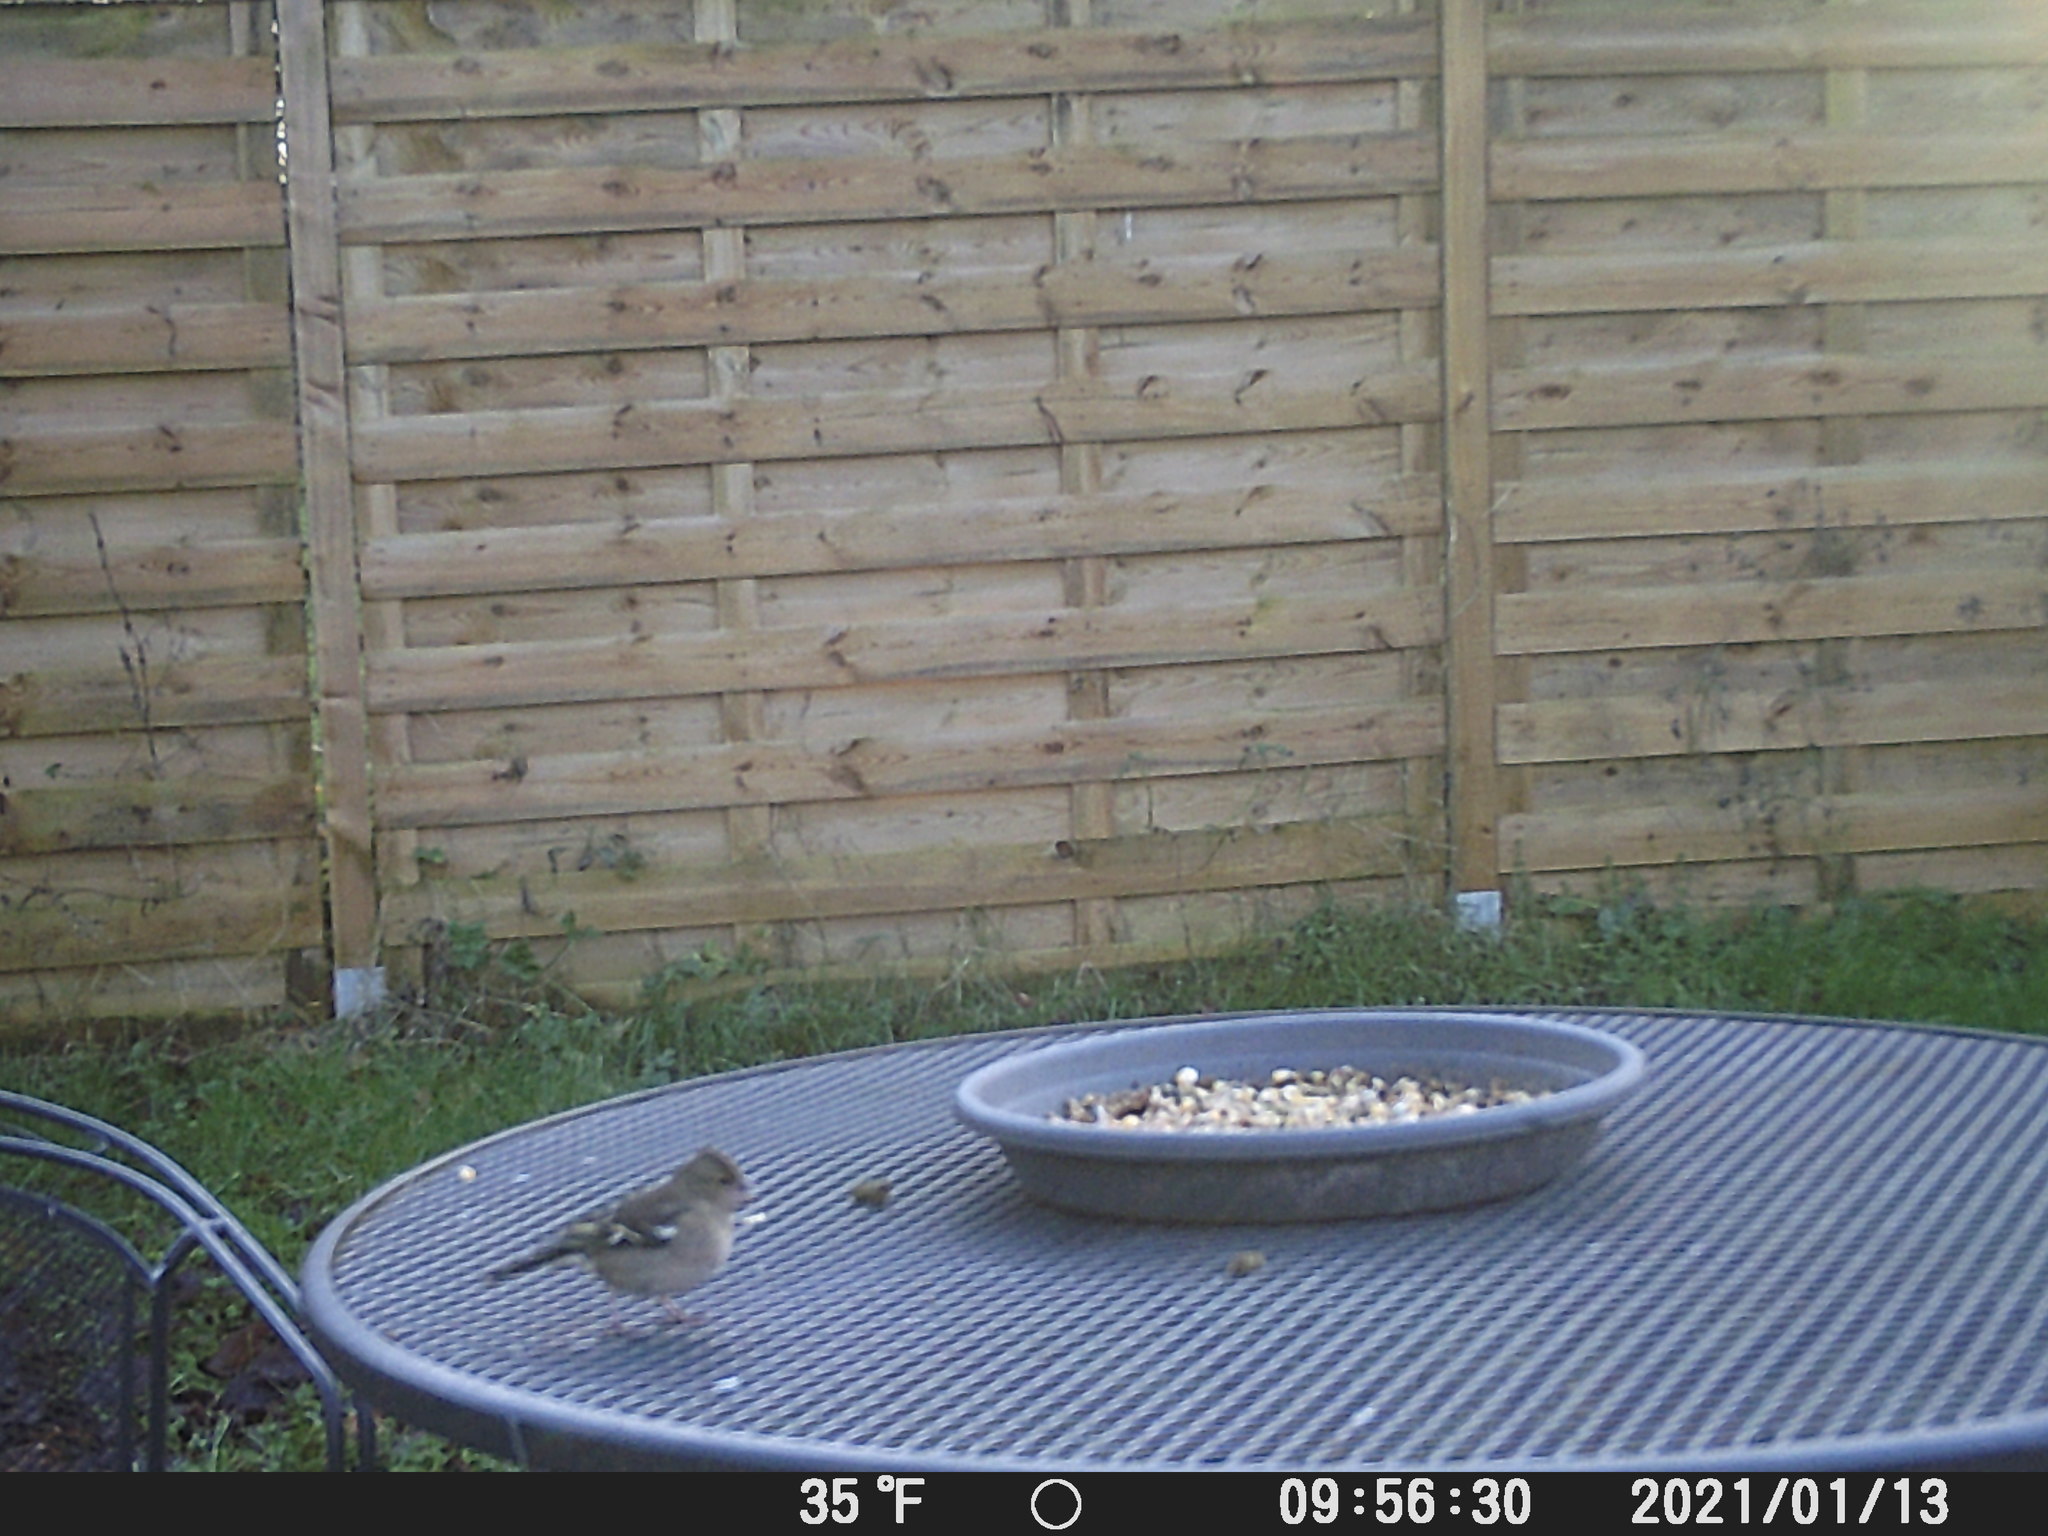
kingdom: Animalia
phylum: Chordata
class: Aves
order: Passeriformes
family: Fringillidae
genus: Fringilla
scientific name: Fringilla coelebs
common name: Common chaffinch
